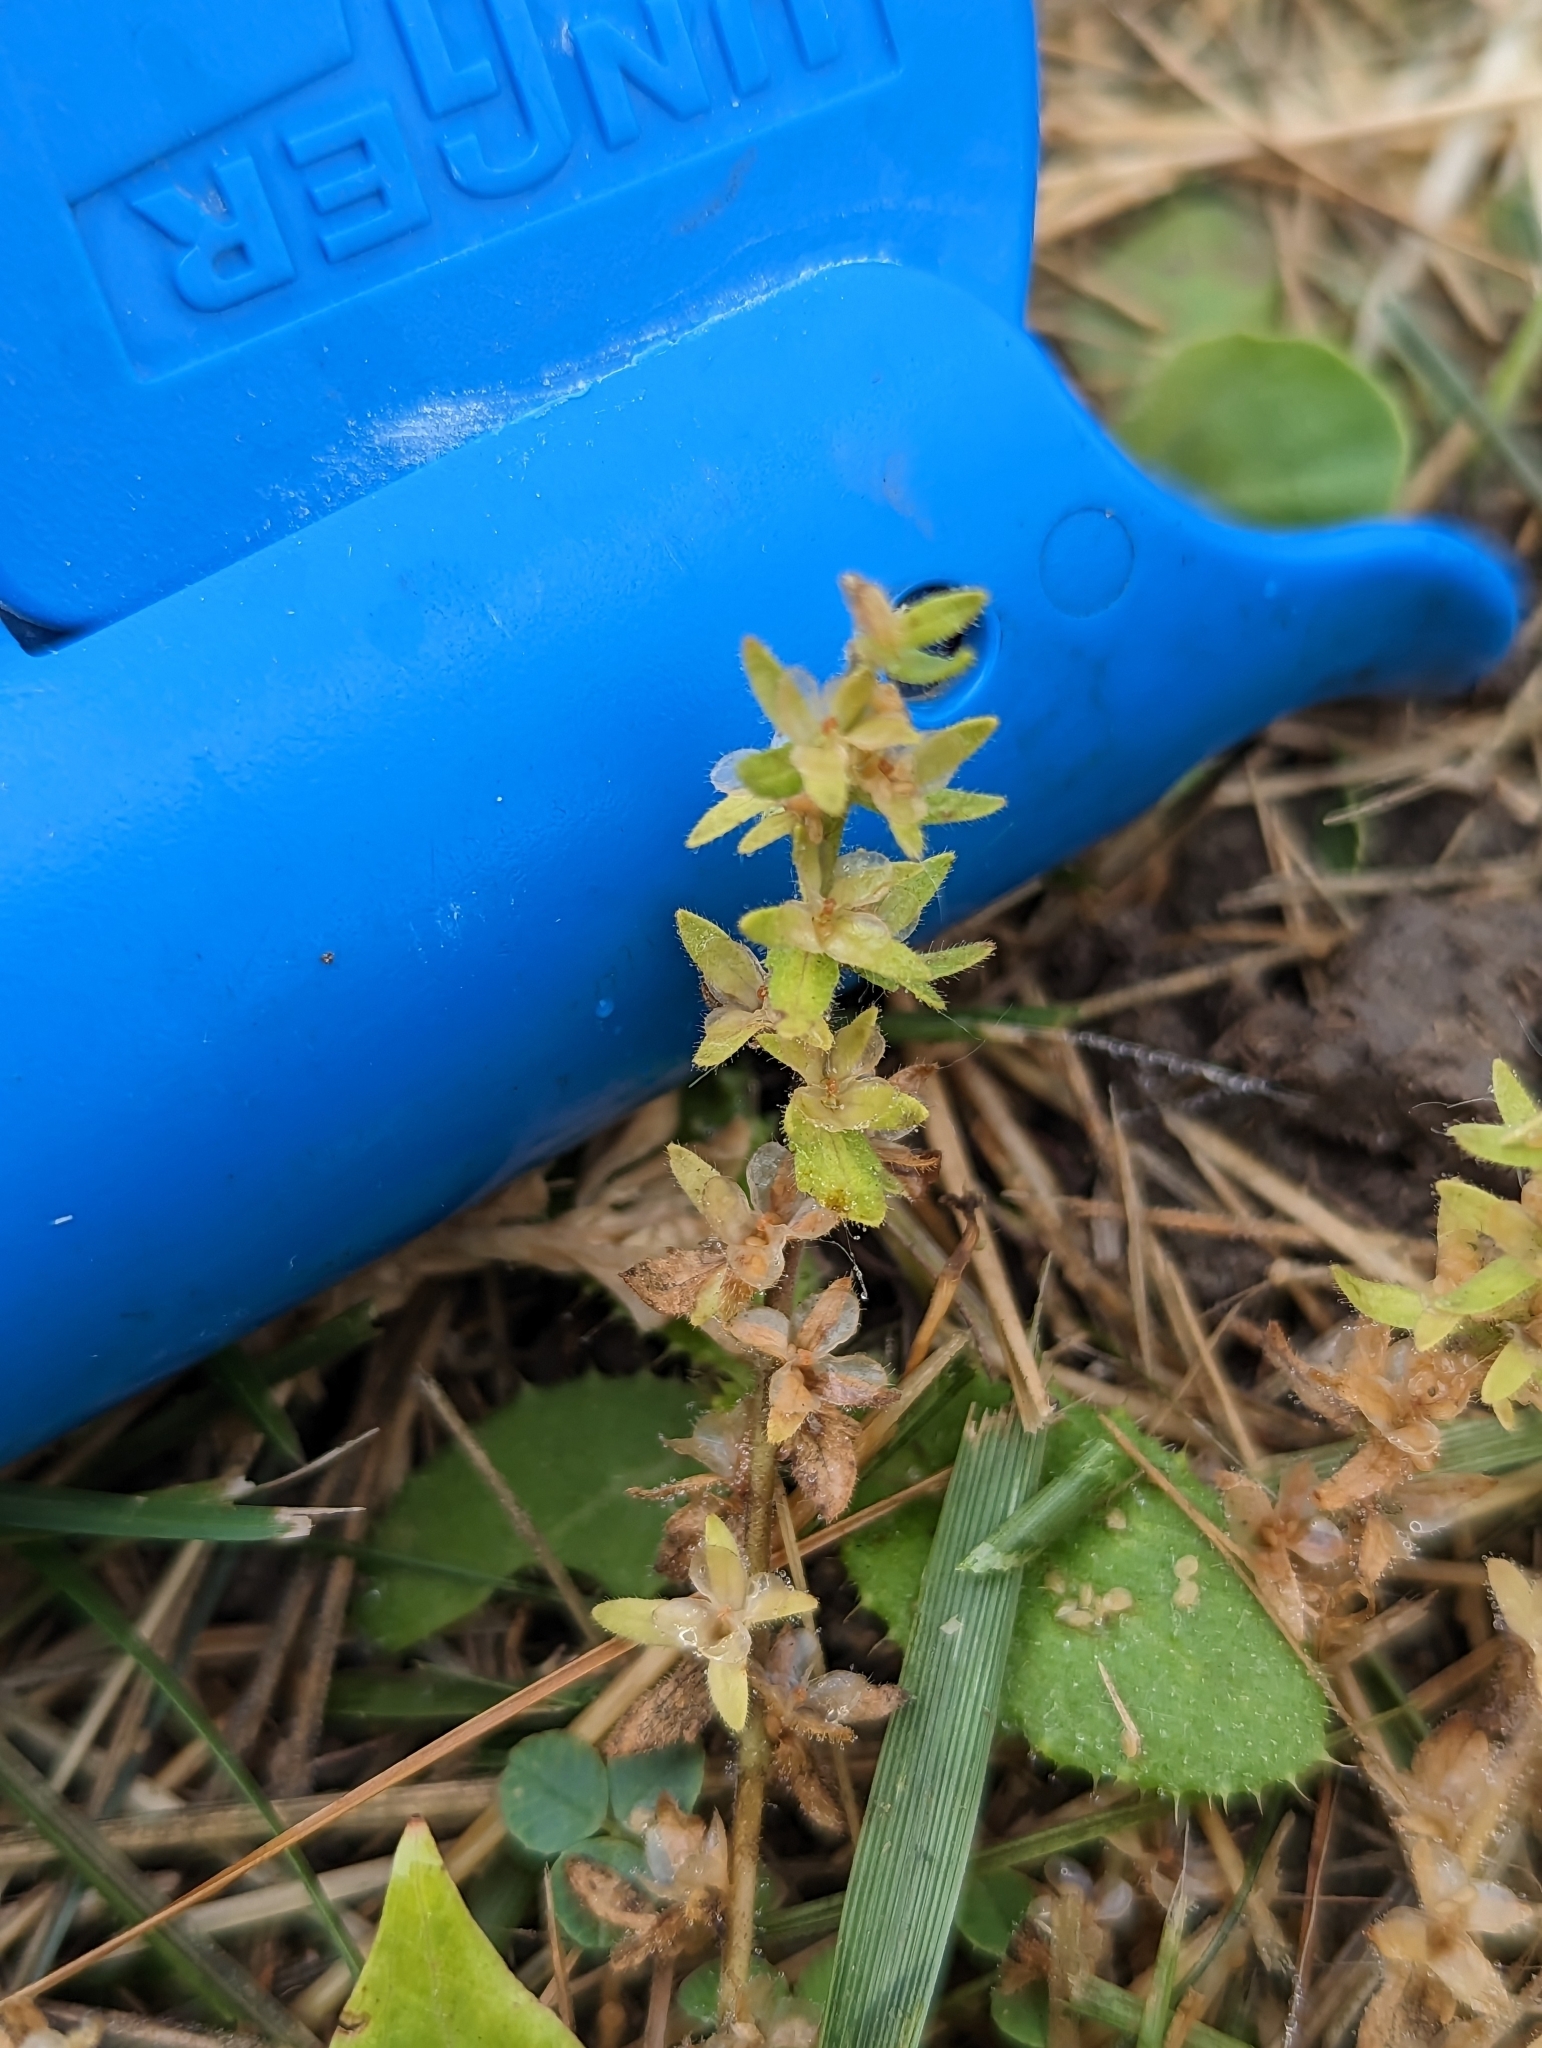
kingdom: Plantae
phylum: Tracheophyta
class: Magnoliopsida
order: Lamiales
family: Plantaginaceae
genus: Veronica
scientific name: Veronica arvensis
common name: Corn speedwell
